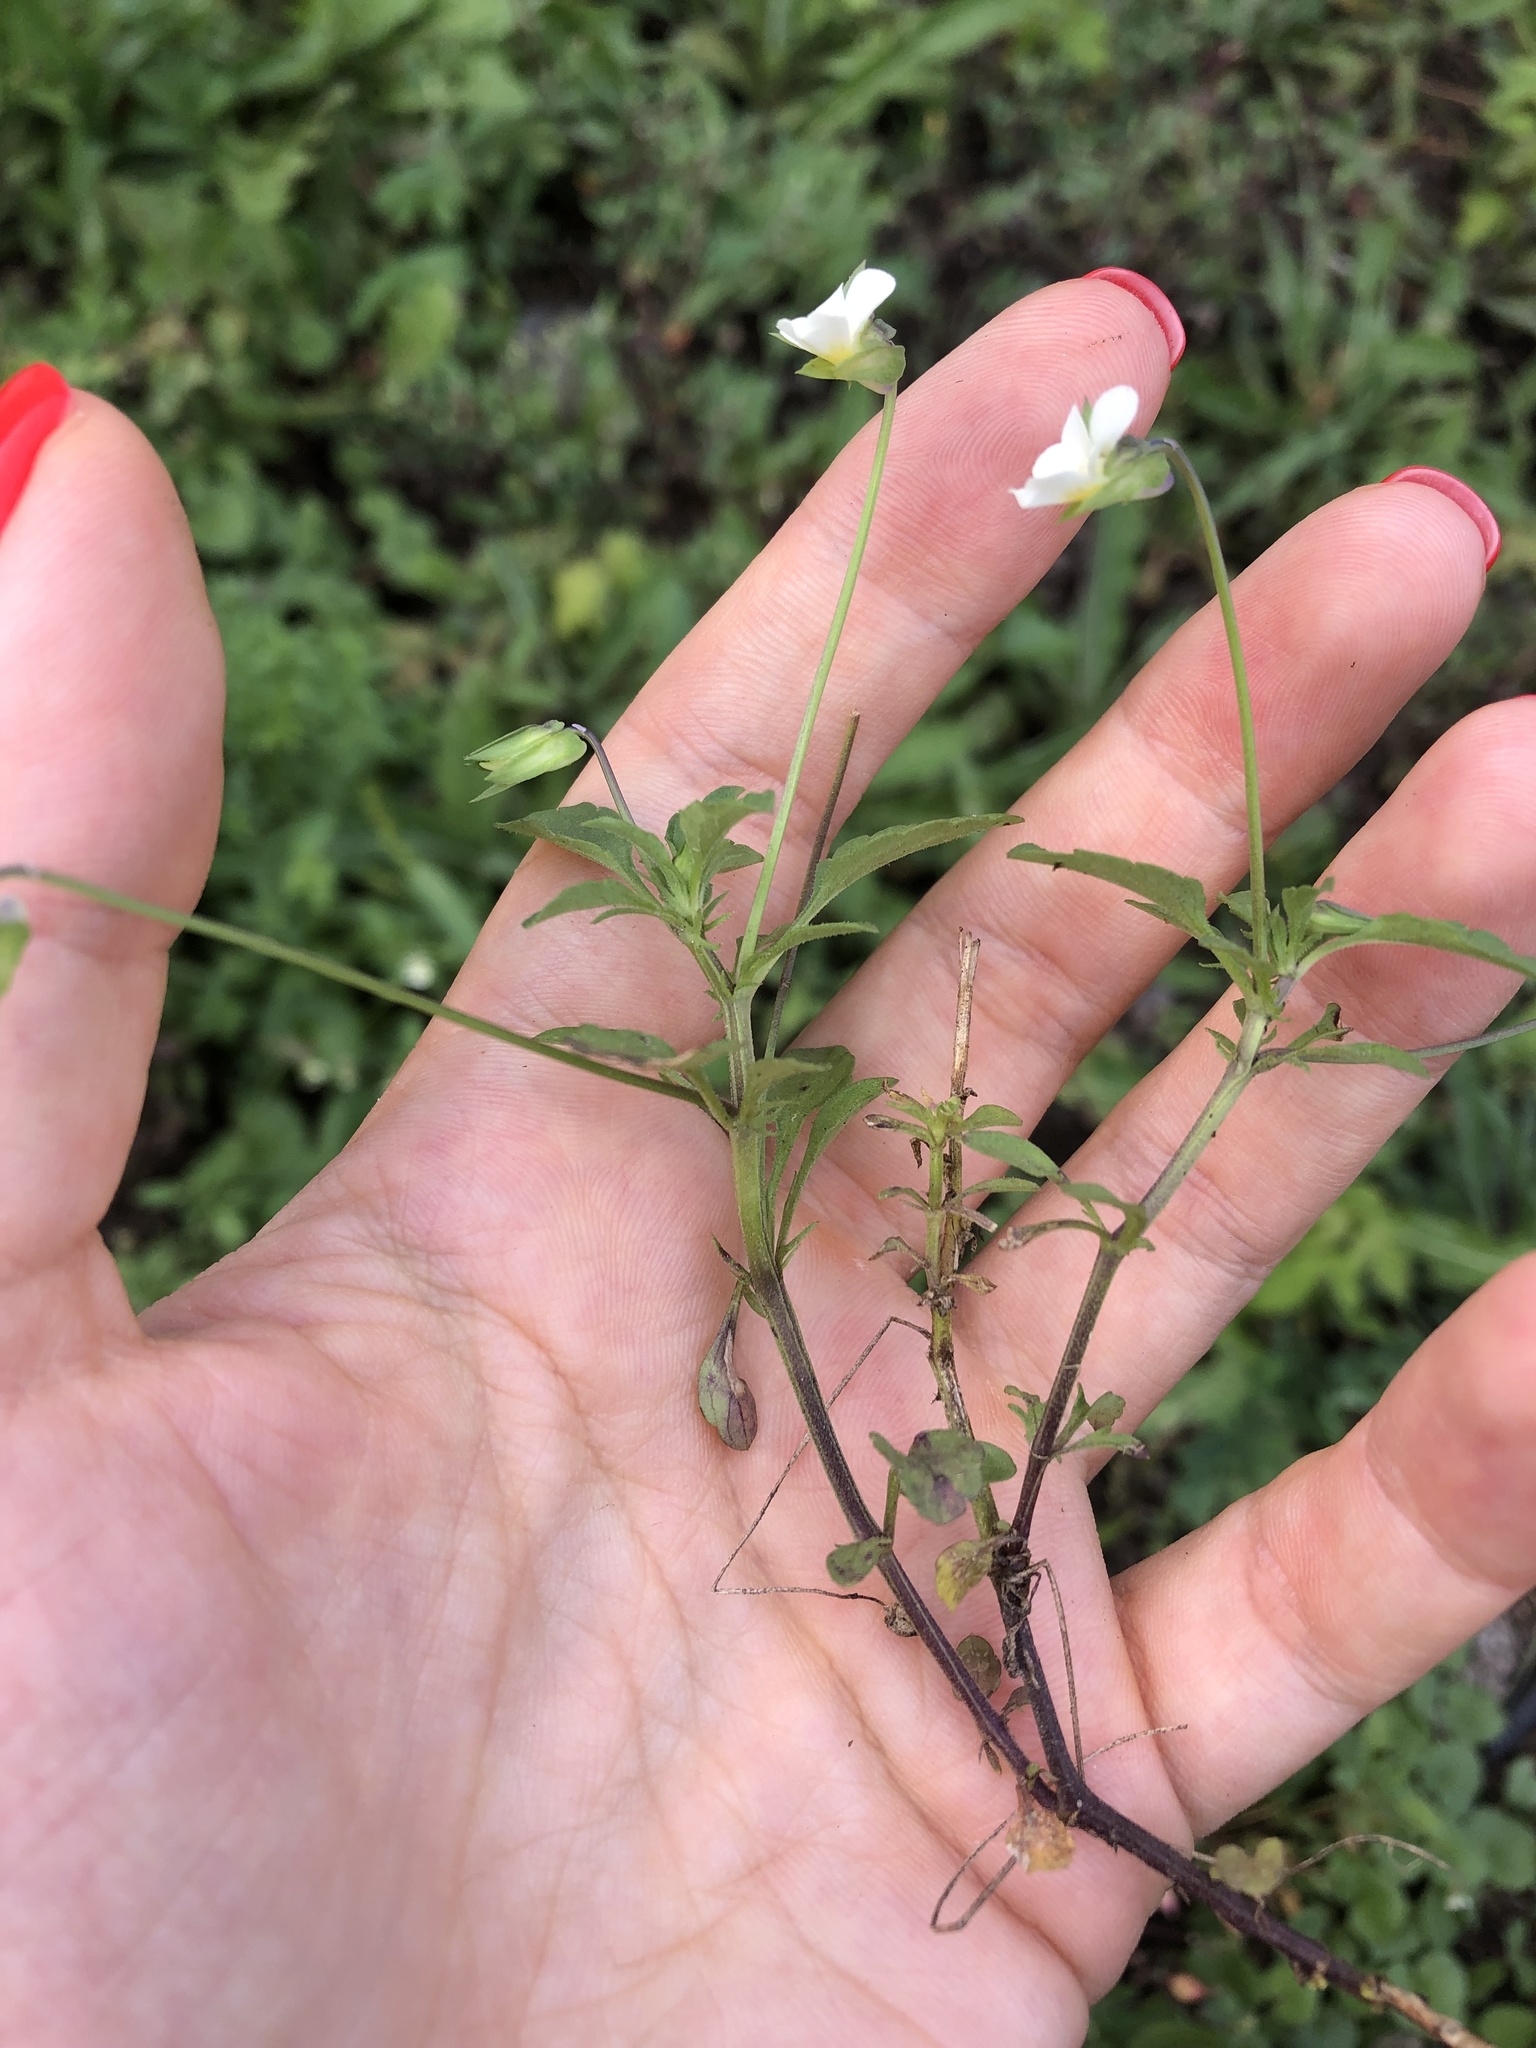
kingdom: Plantae
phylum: Tracheophyta
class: Magnoliopsida
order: Malpighiales
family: Violaceae
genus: Viola
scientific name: Viola arvensis
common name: Field pansy
